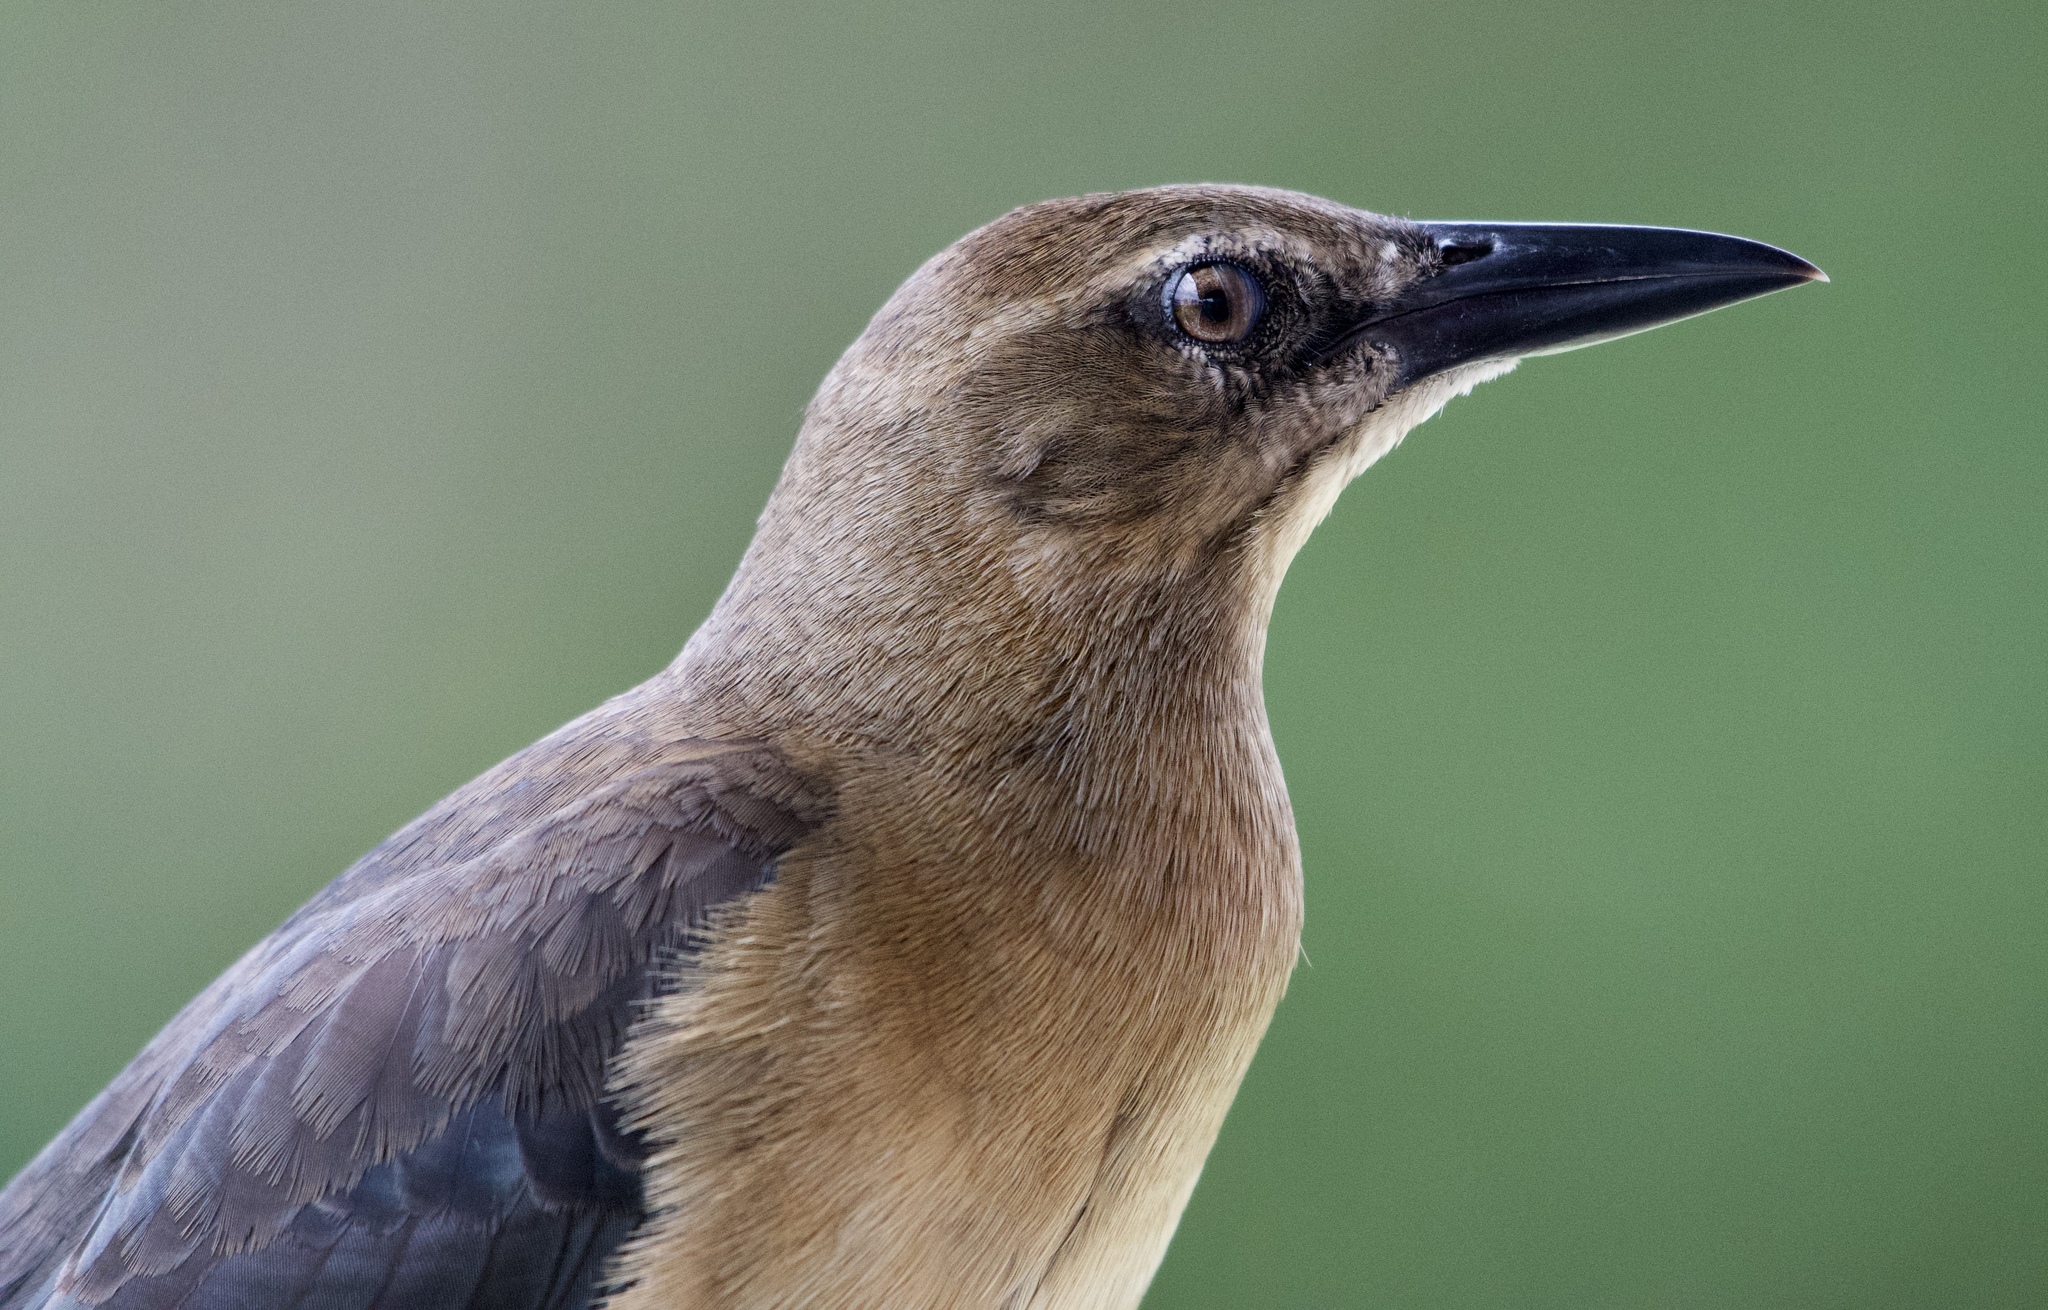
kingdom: Animalia
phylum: Chordata
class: Aves
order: Passeriformes
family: Icteridae
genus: Quiscalus
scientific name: Quiscalus mexicanus
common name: Great-tailed grackle
